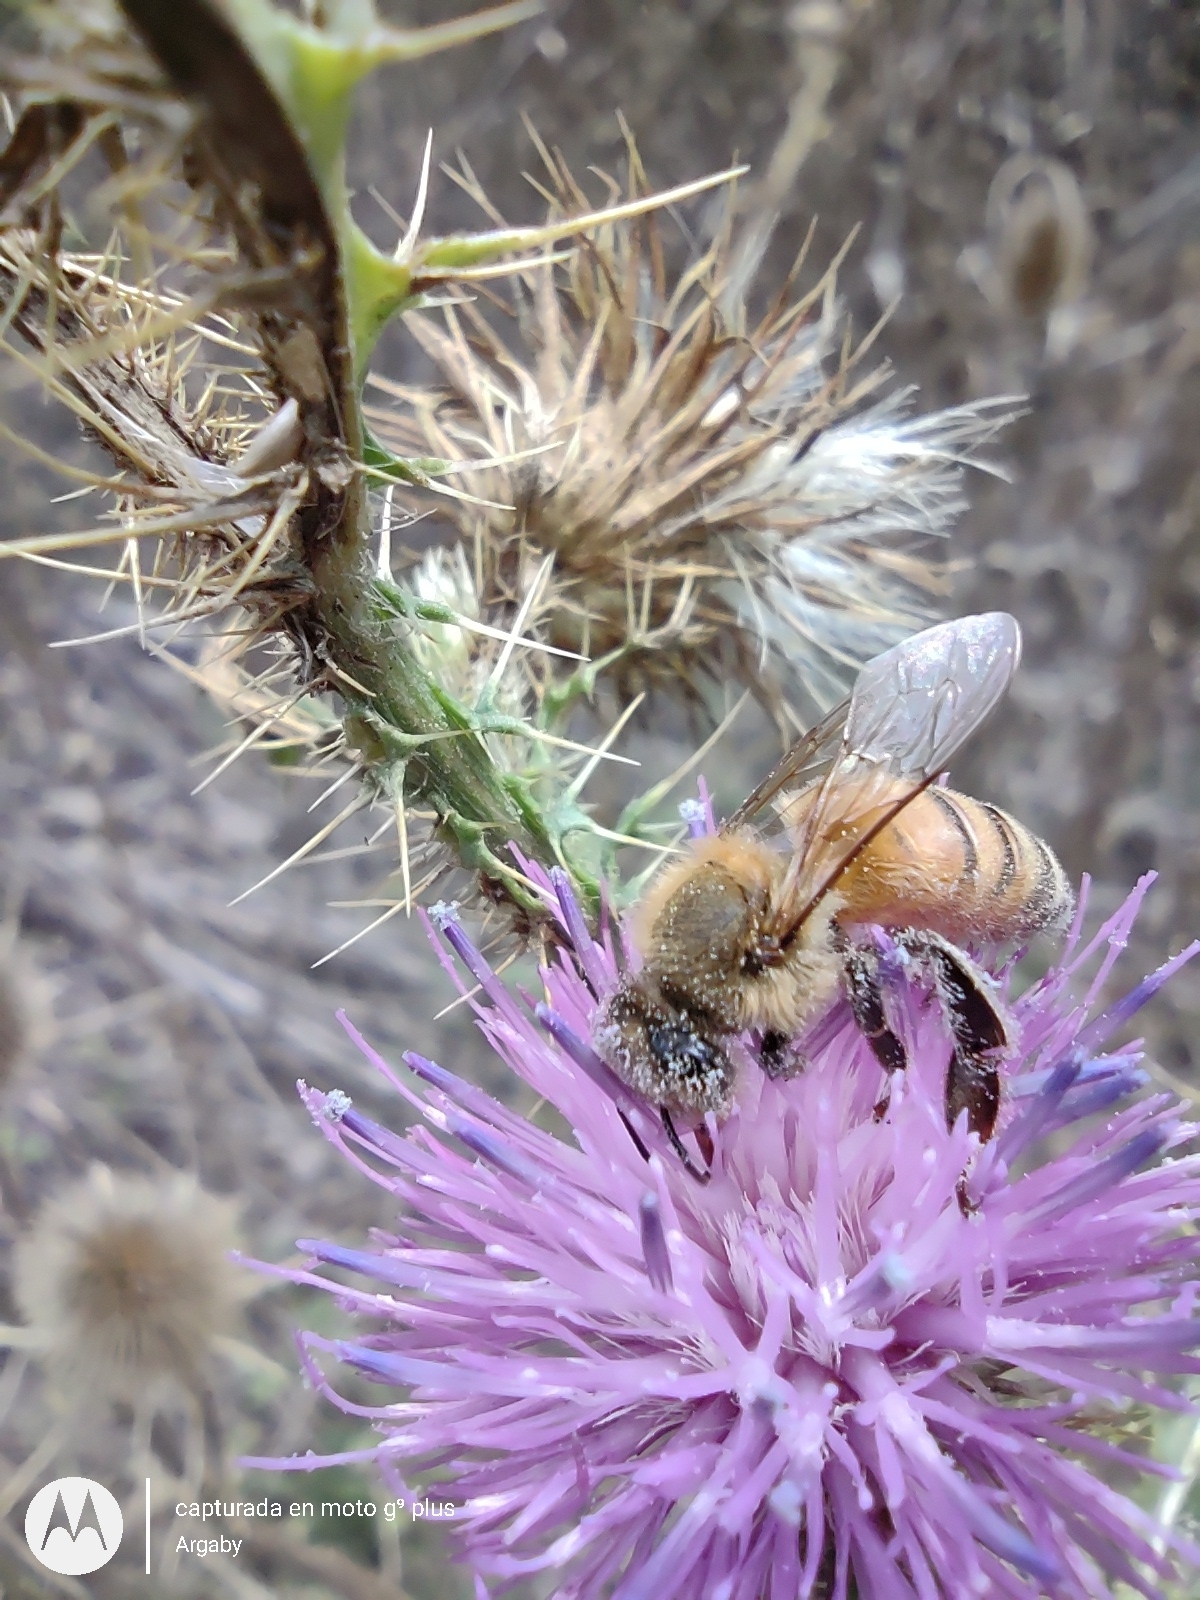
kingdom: Animalia
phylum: Arthropoda
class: Insecta
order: Hymenoptera
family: Apidae
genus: Apis
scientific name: Apis mellifera
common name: Honey bee
